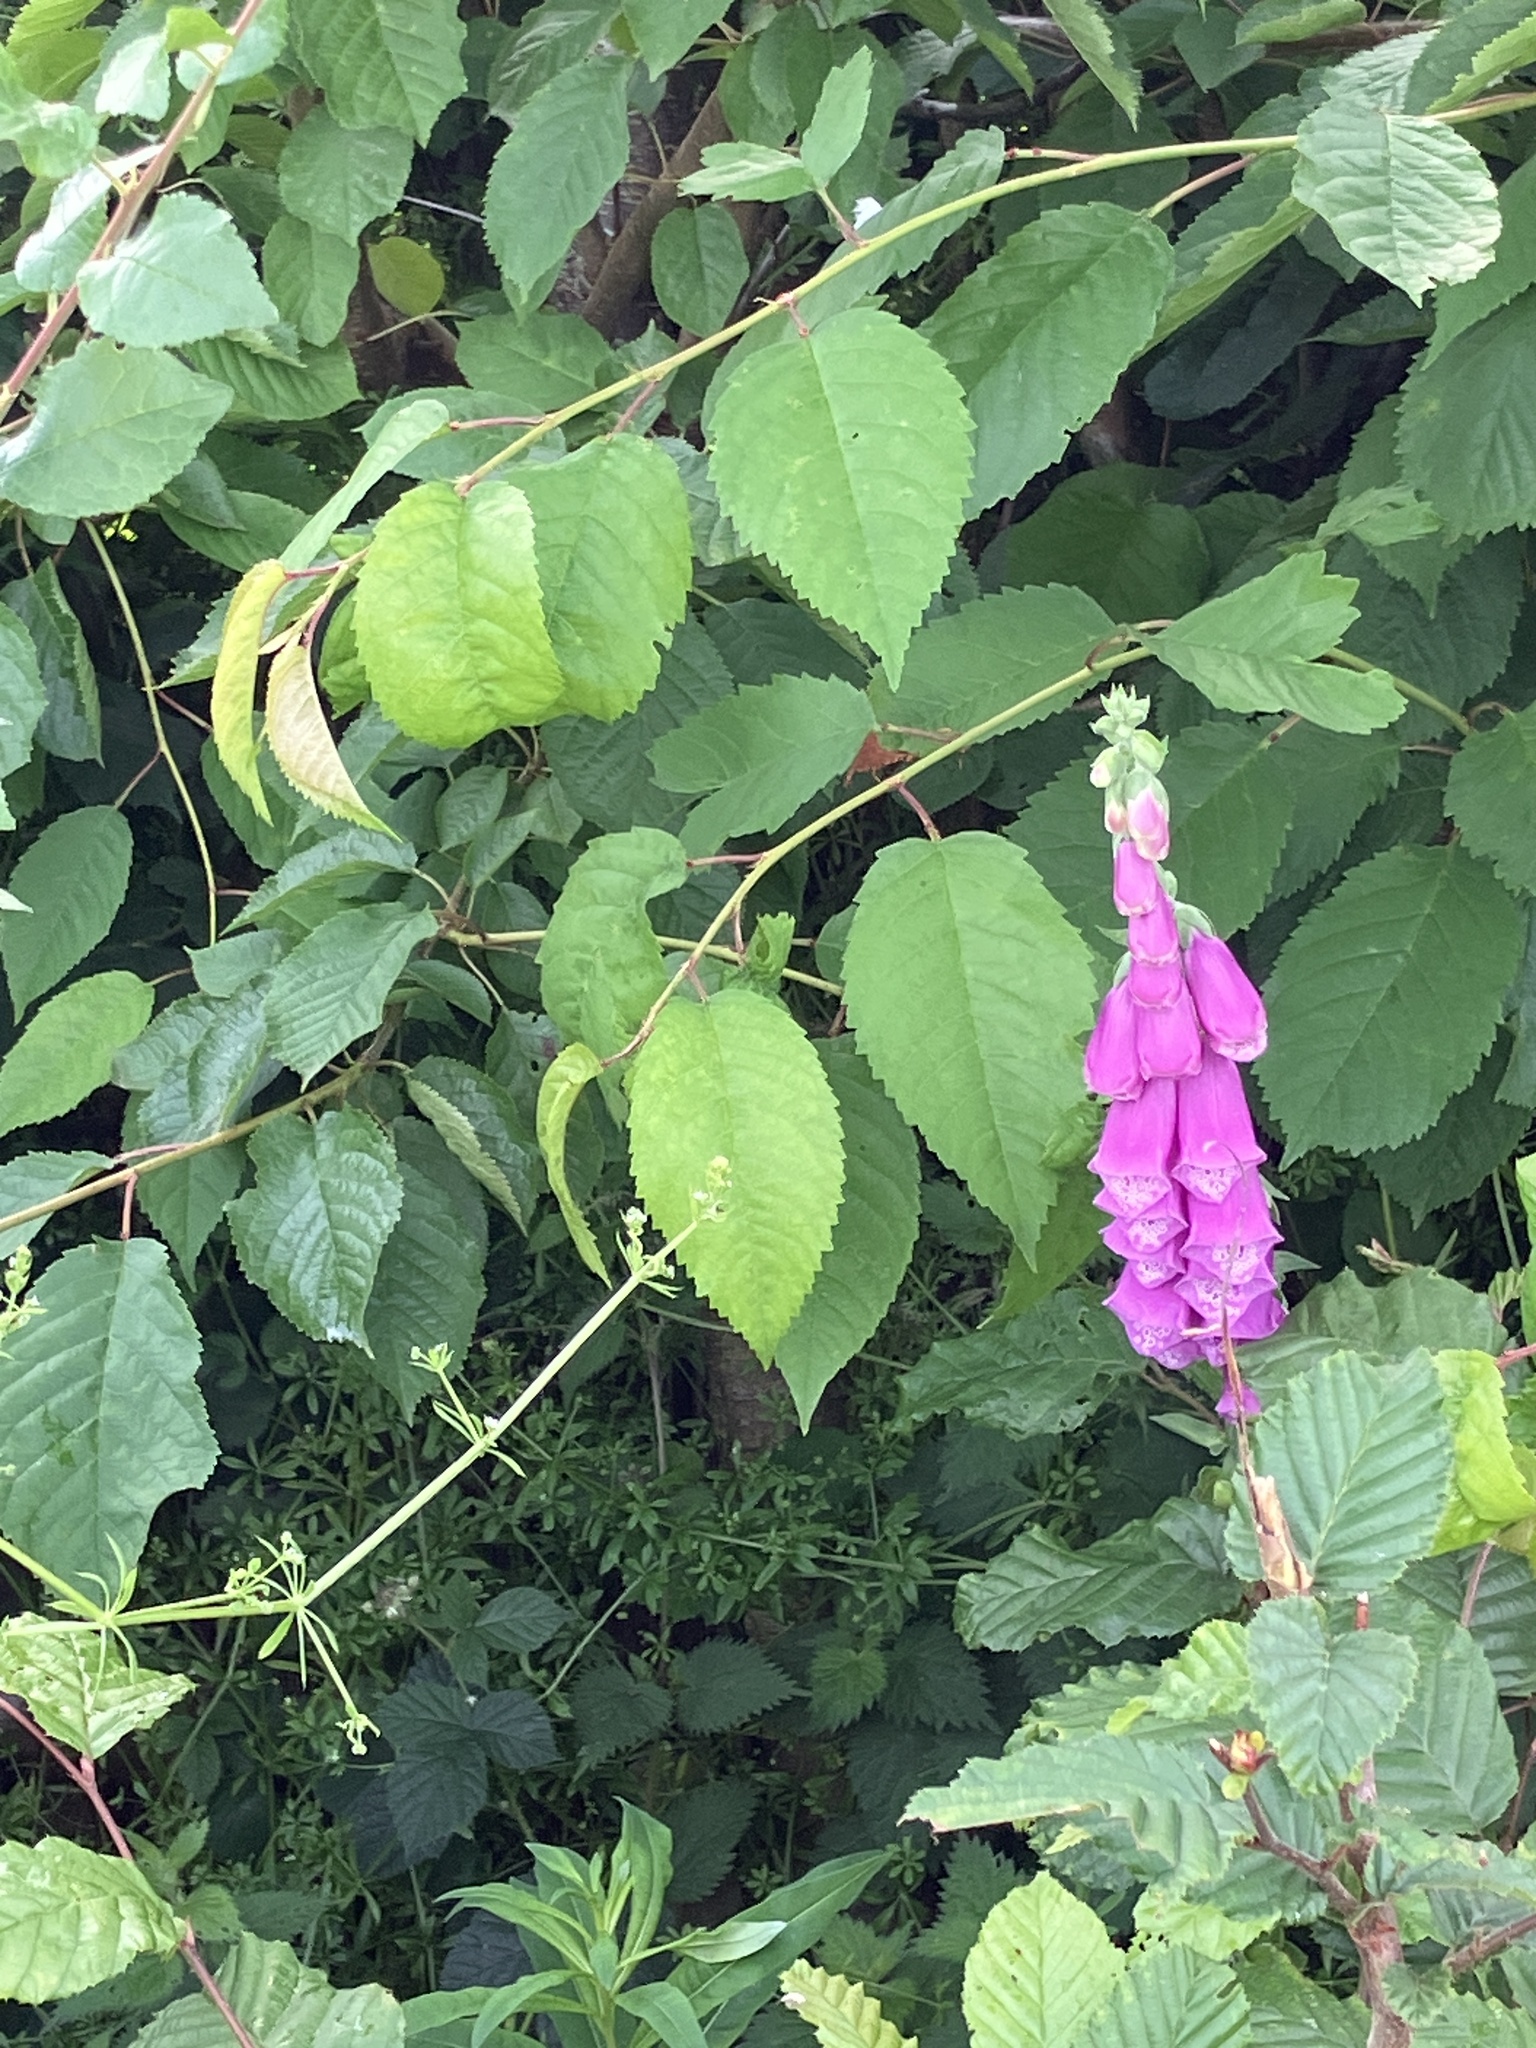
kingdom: Plantae
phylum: Tracheophyta
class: Magnoliopsida
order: Lamiales
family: Plantaginaceae
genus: Digitalis
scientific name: Digitalis purpurea
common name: Foxglove
